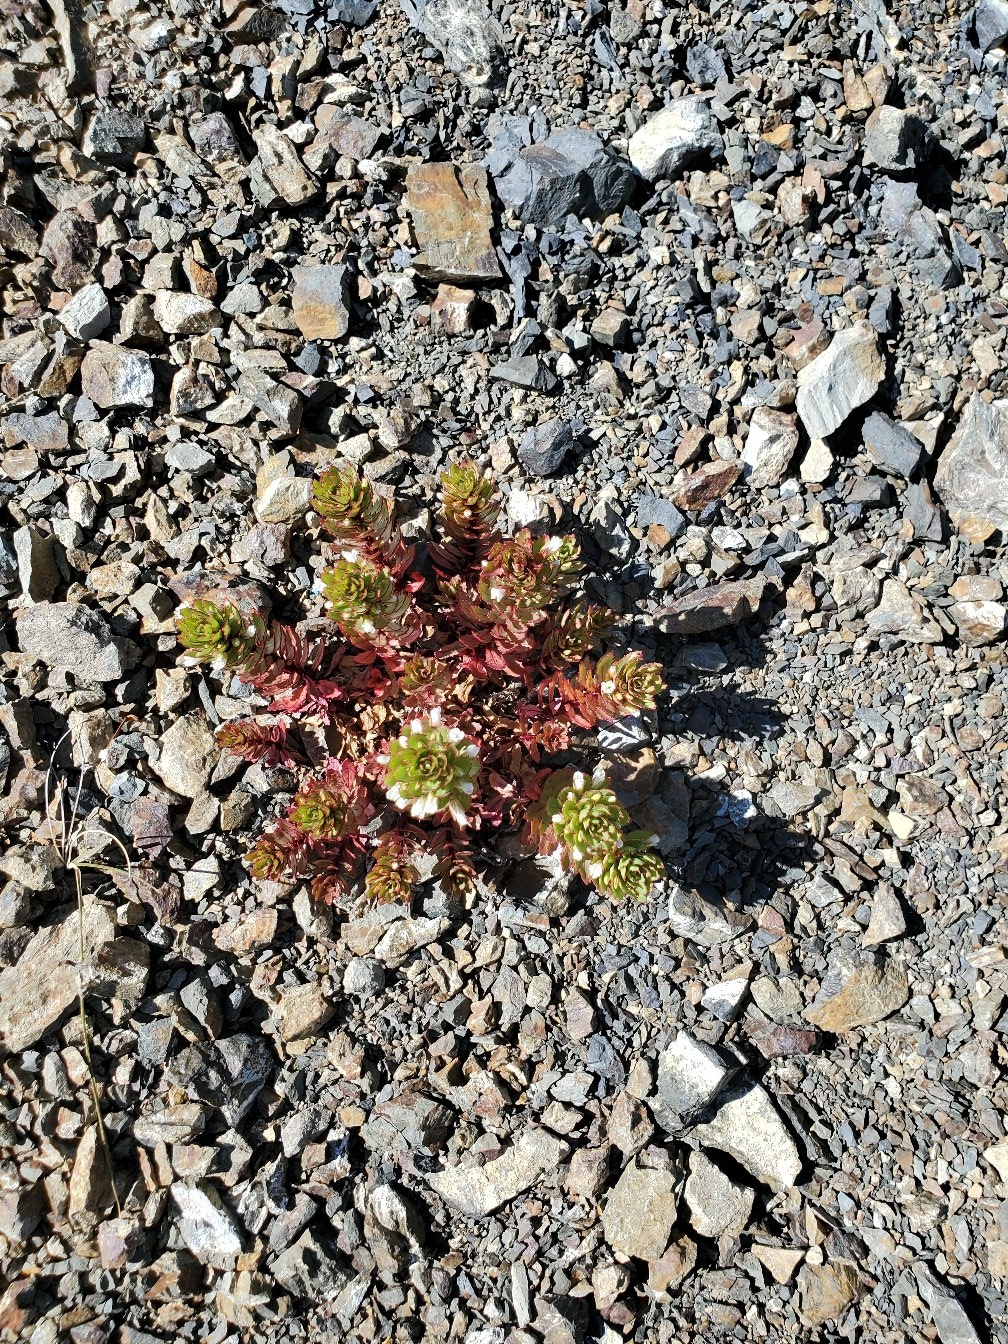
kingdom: Plantae
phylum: Tracheophyta
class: Magnoliopsida
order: Myrtales
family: Onagraceae
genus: Epilobium
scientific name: Epilobium pycnostachyum
